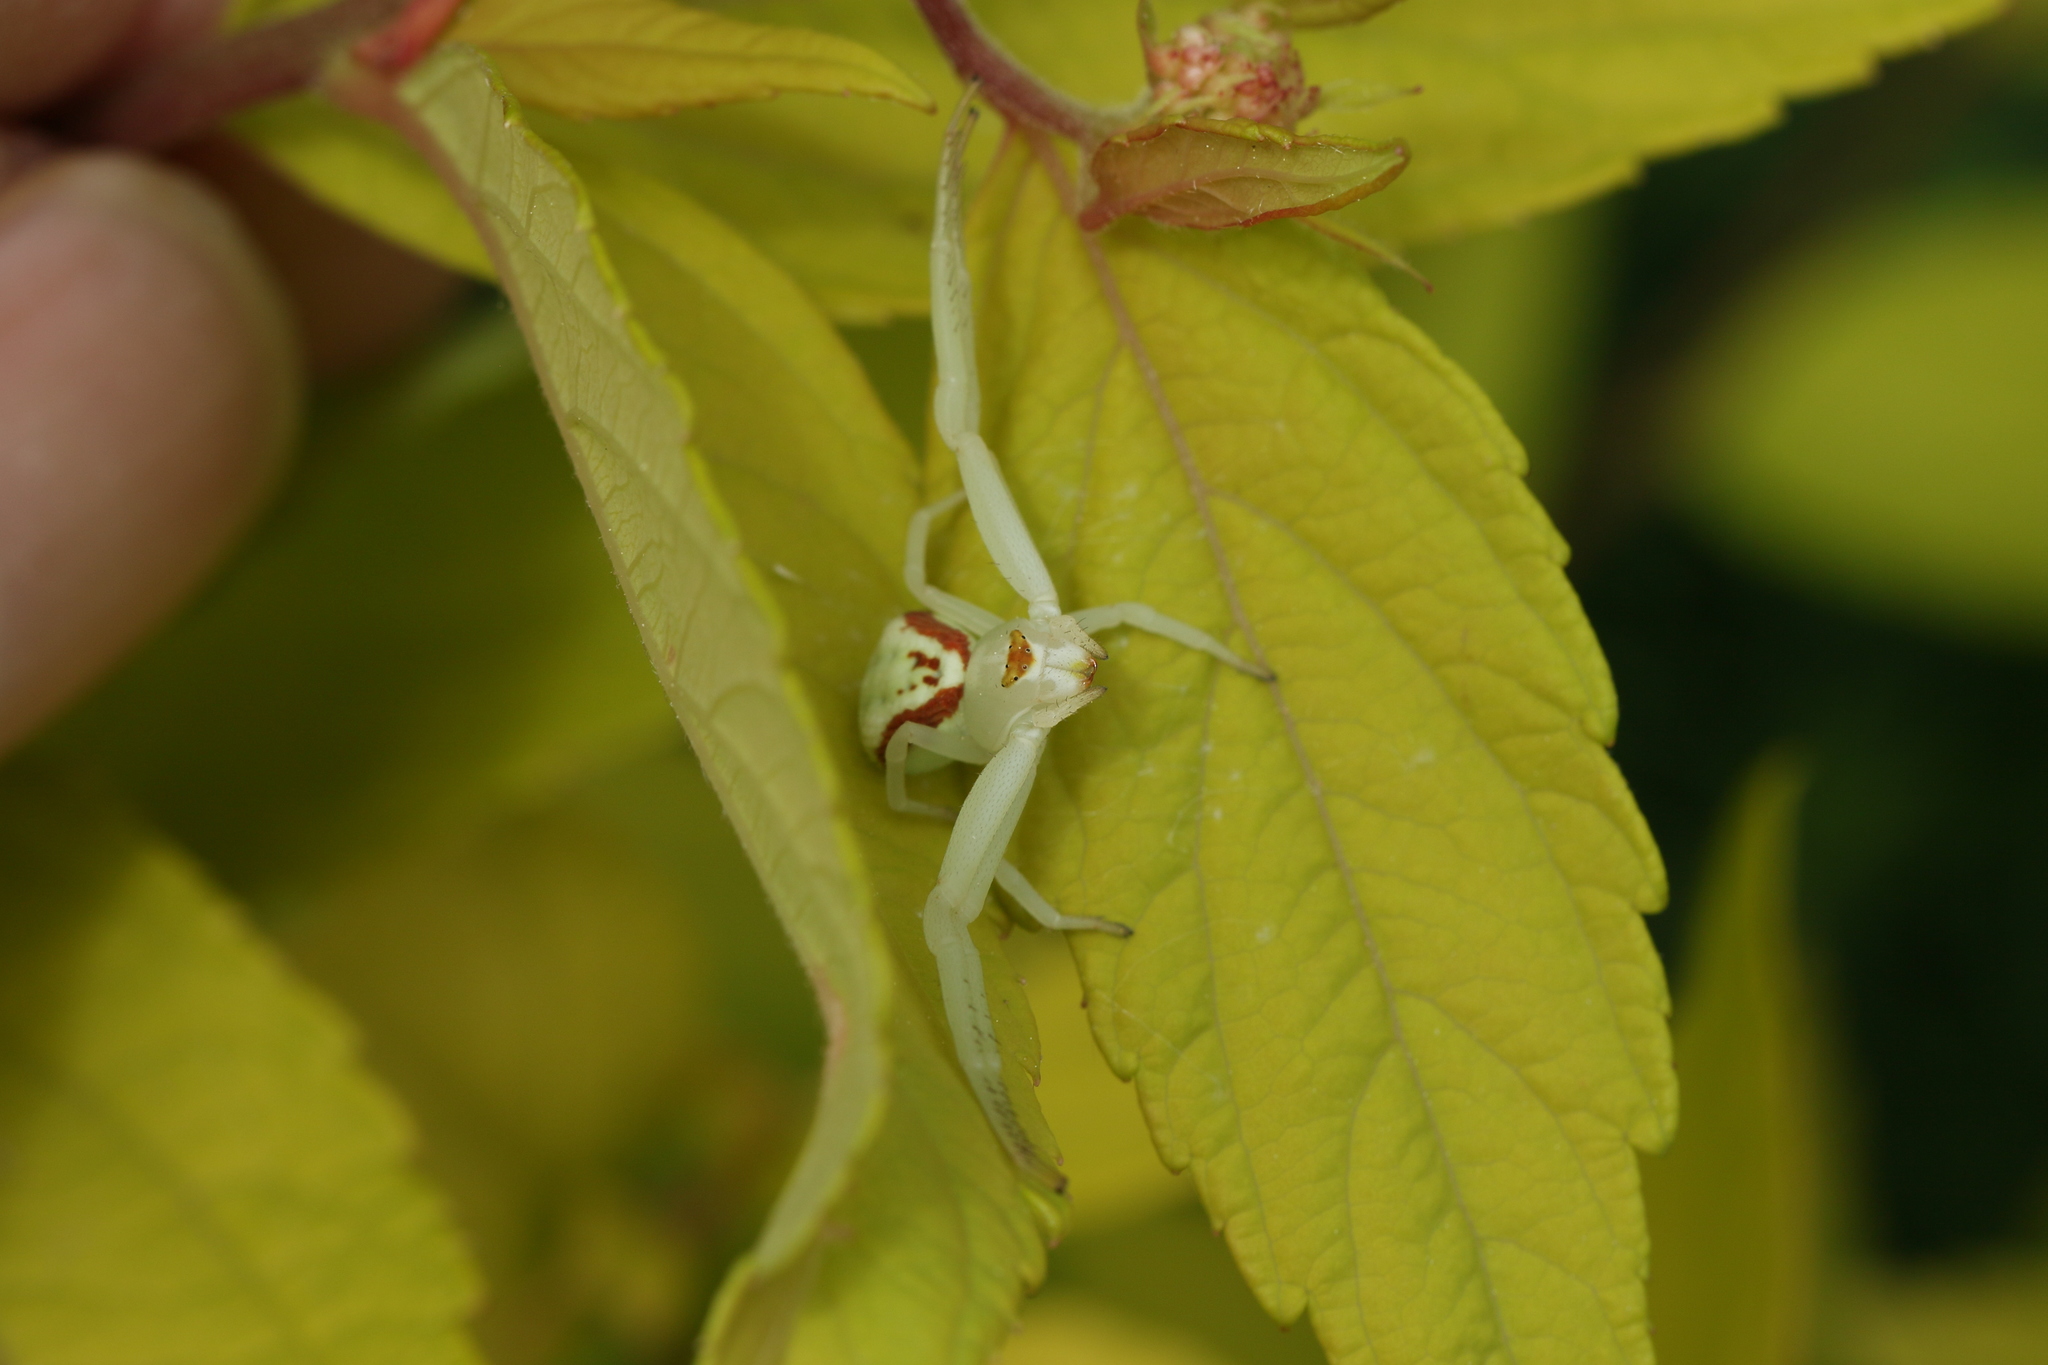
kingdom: Animalia
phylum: Arthropoda
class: Arachnida
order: Araneae
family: Thomisidae
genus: Misumena
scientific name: Misumena vatia
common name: Goldenrod crab spider
